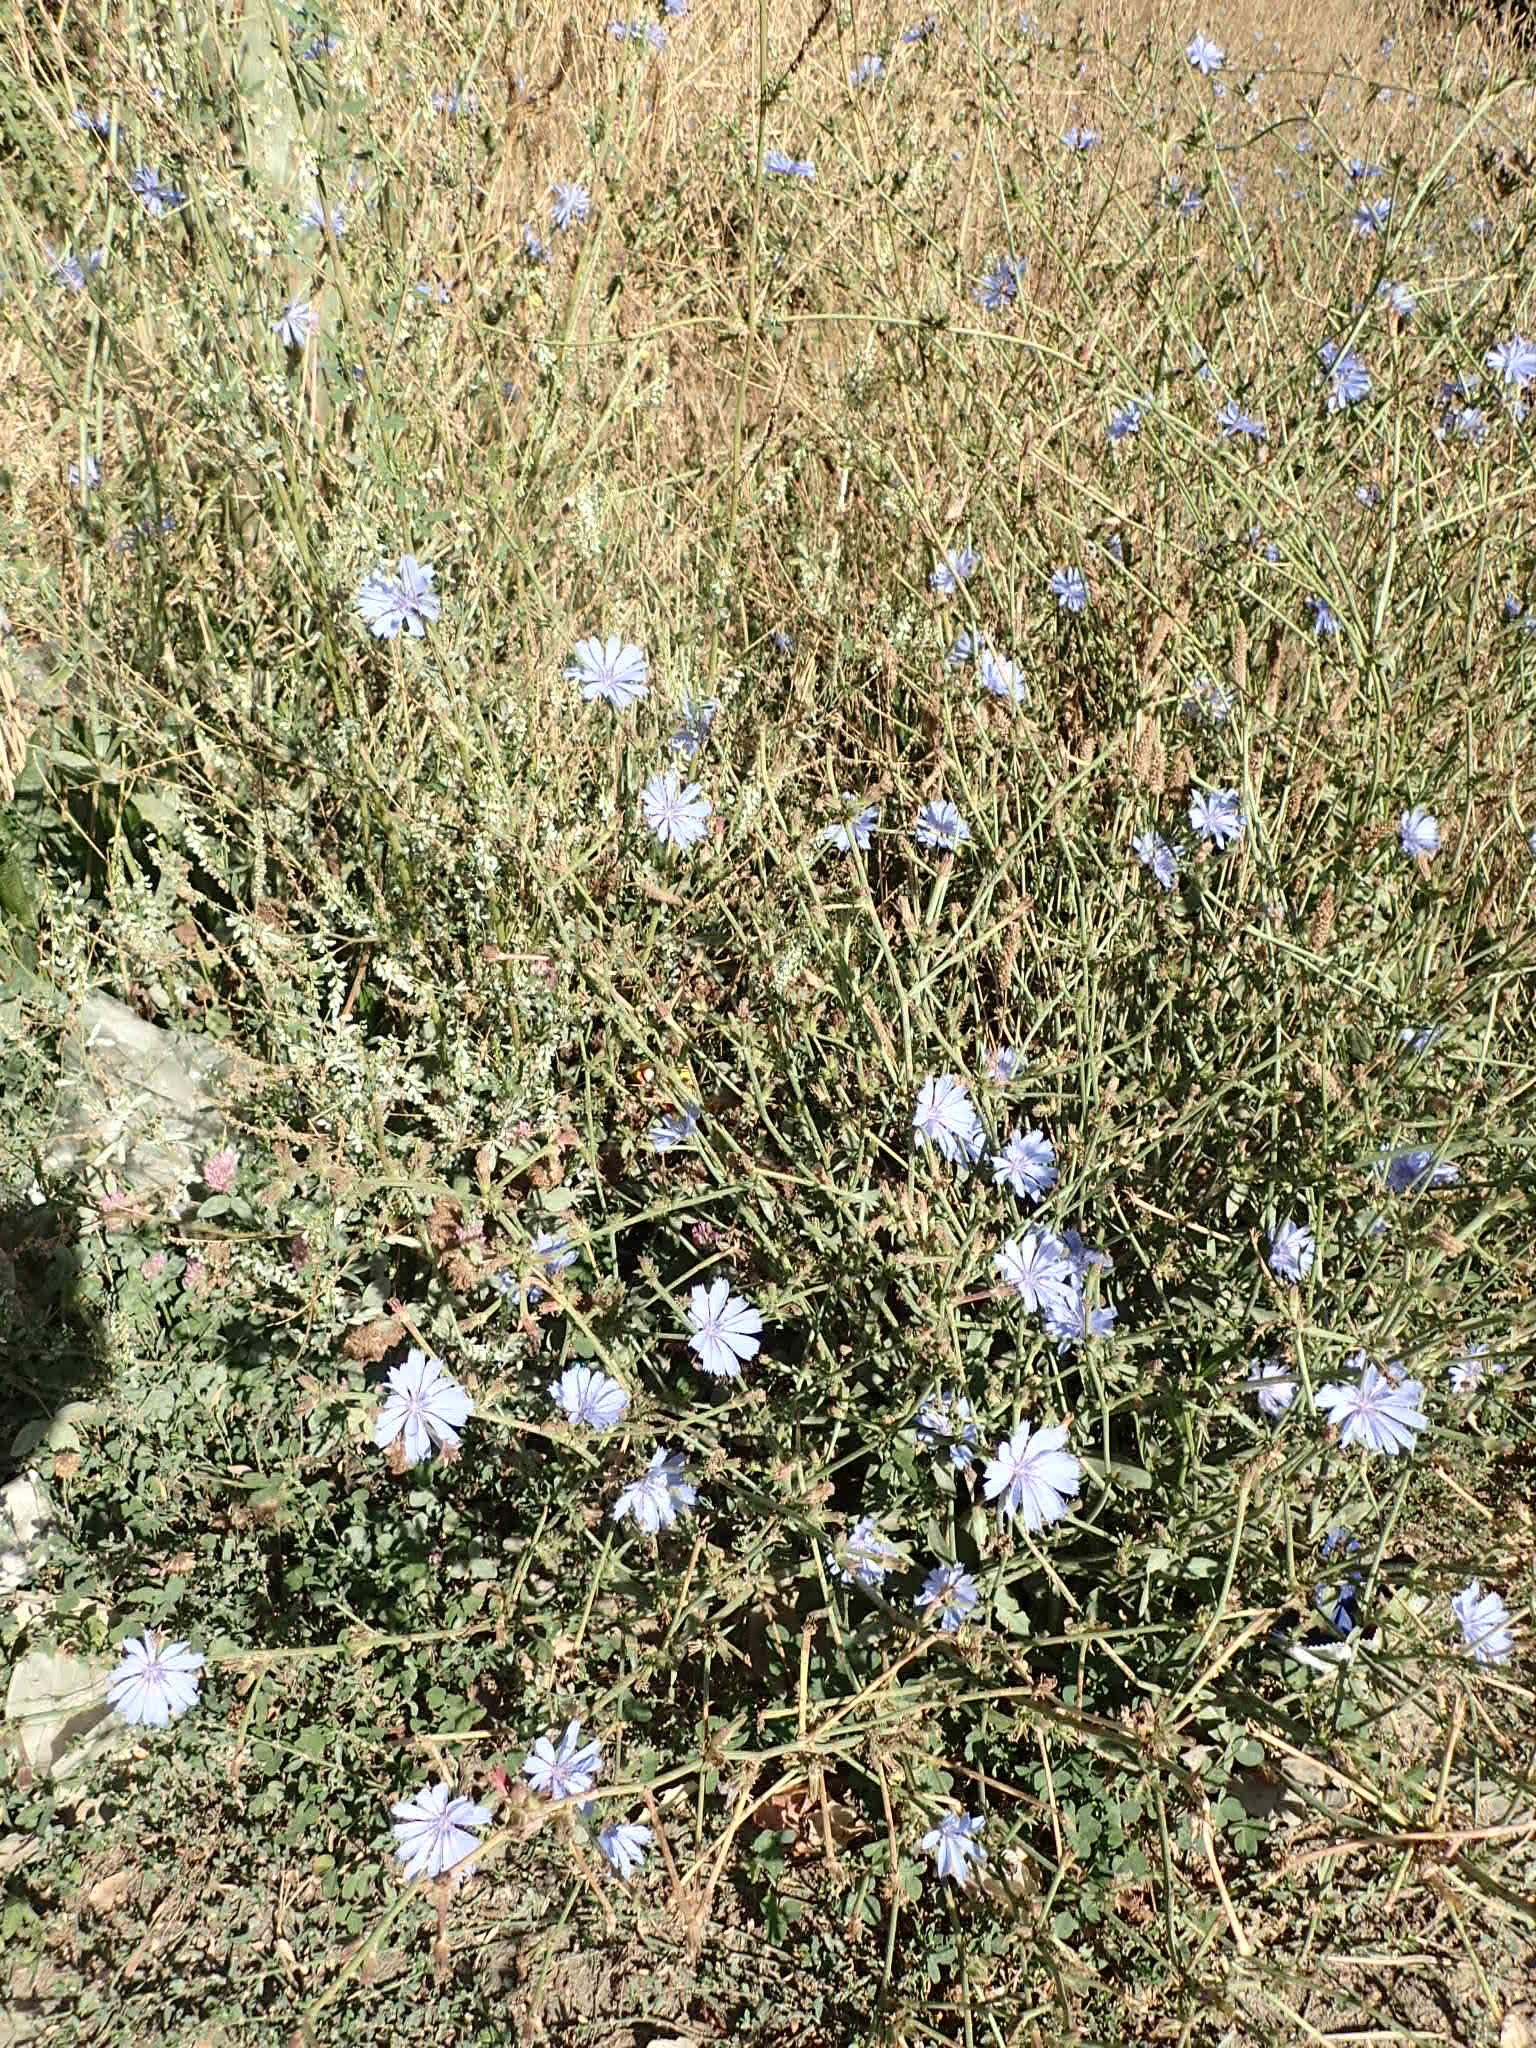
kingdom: Plantae
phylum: Tracheophyta
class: Magnoliopsida
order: Asterales
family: Asteraceae
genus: Cichorium
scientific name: Cichorium intybus
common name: Chicory
